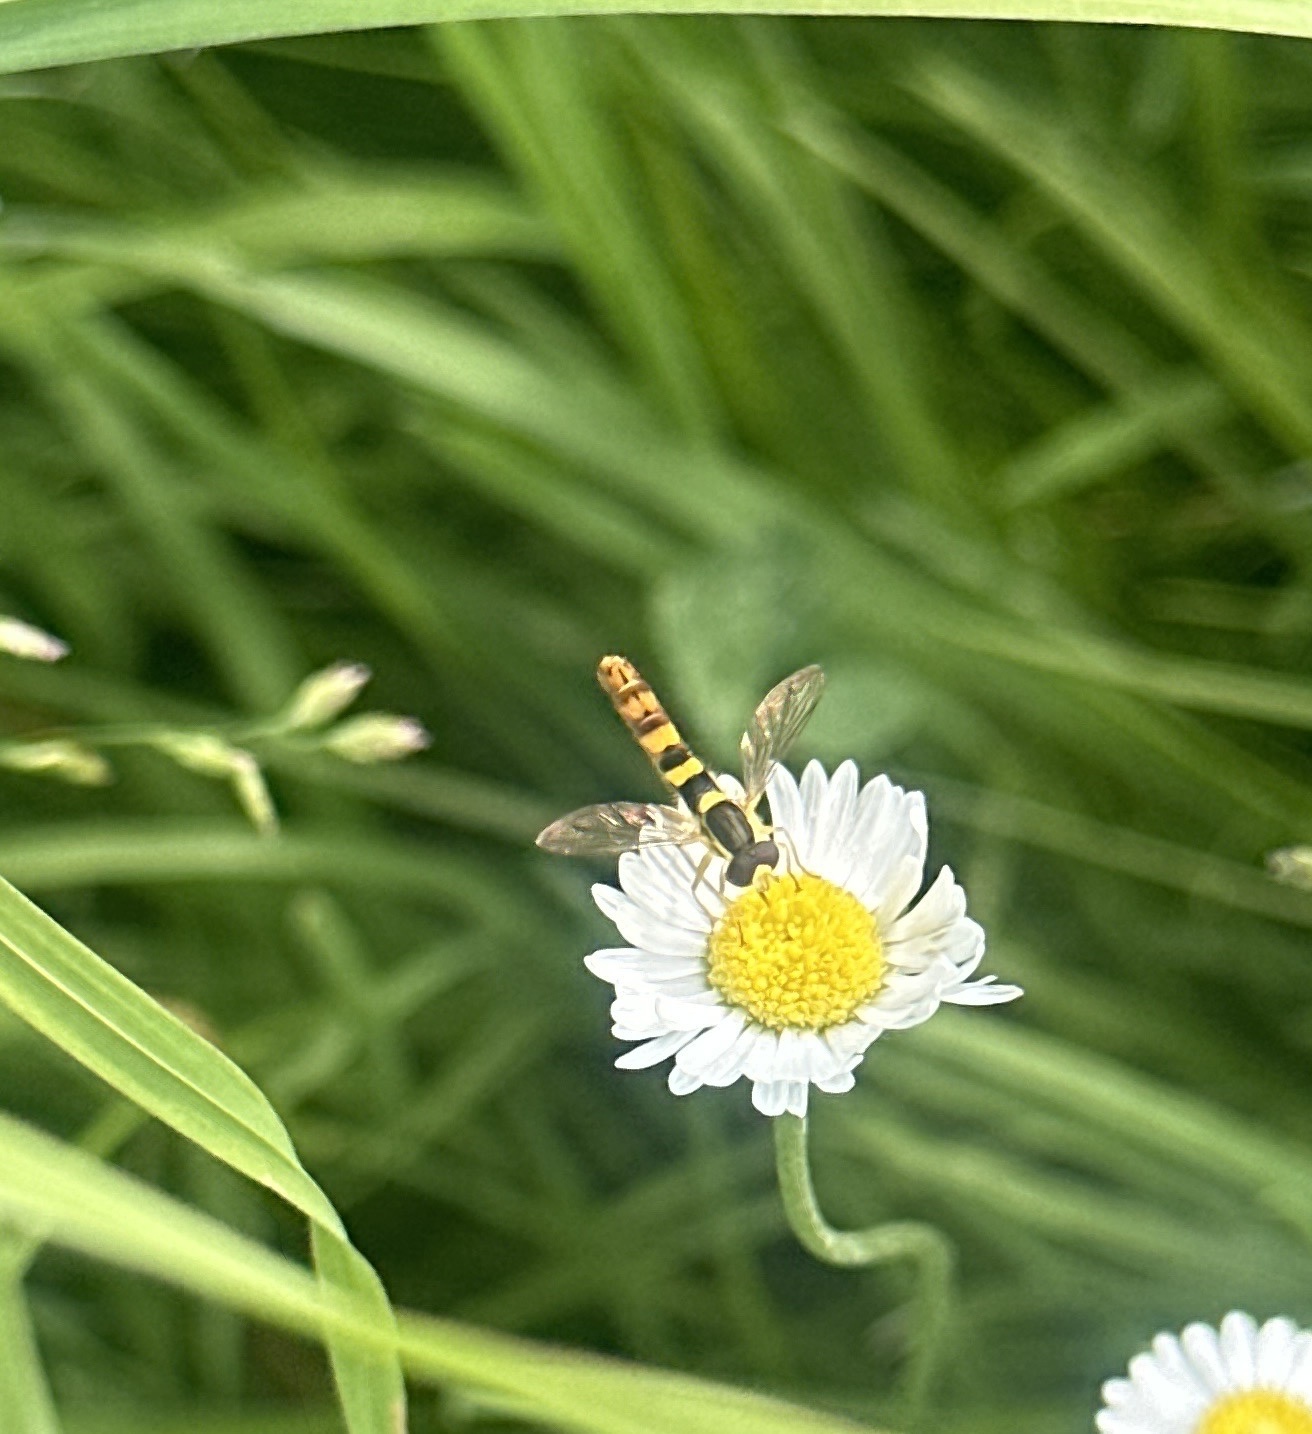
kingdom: Animalia
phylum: Arthropoda
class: Insecta
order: Diptera
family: Syrphidae
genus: Sphaerophoria
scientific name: Sphaerophoria scripta
